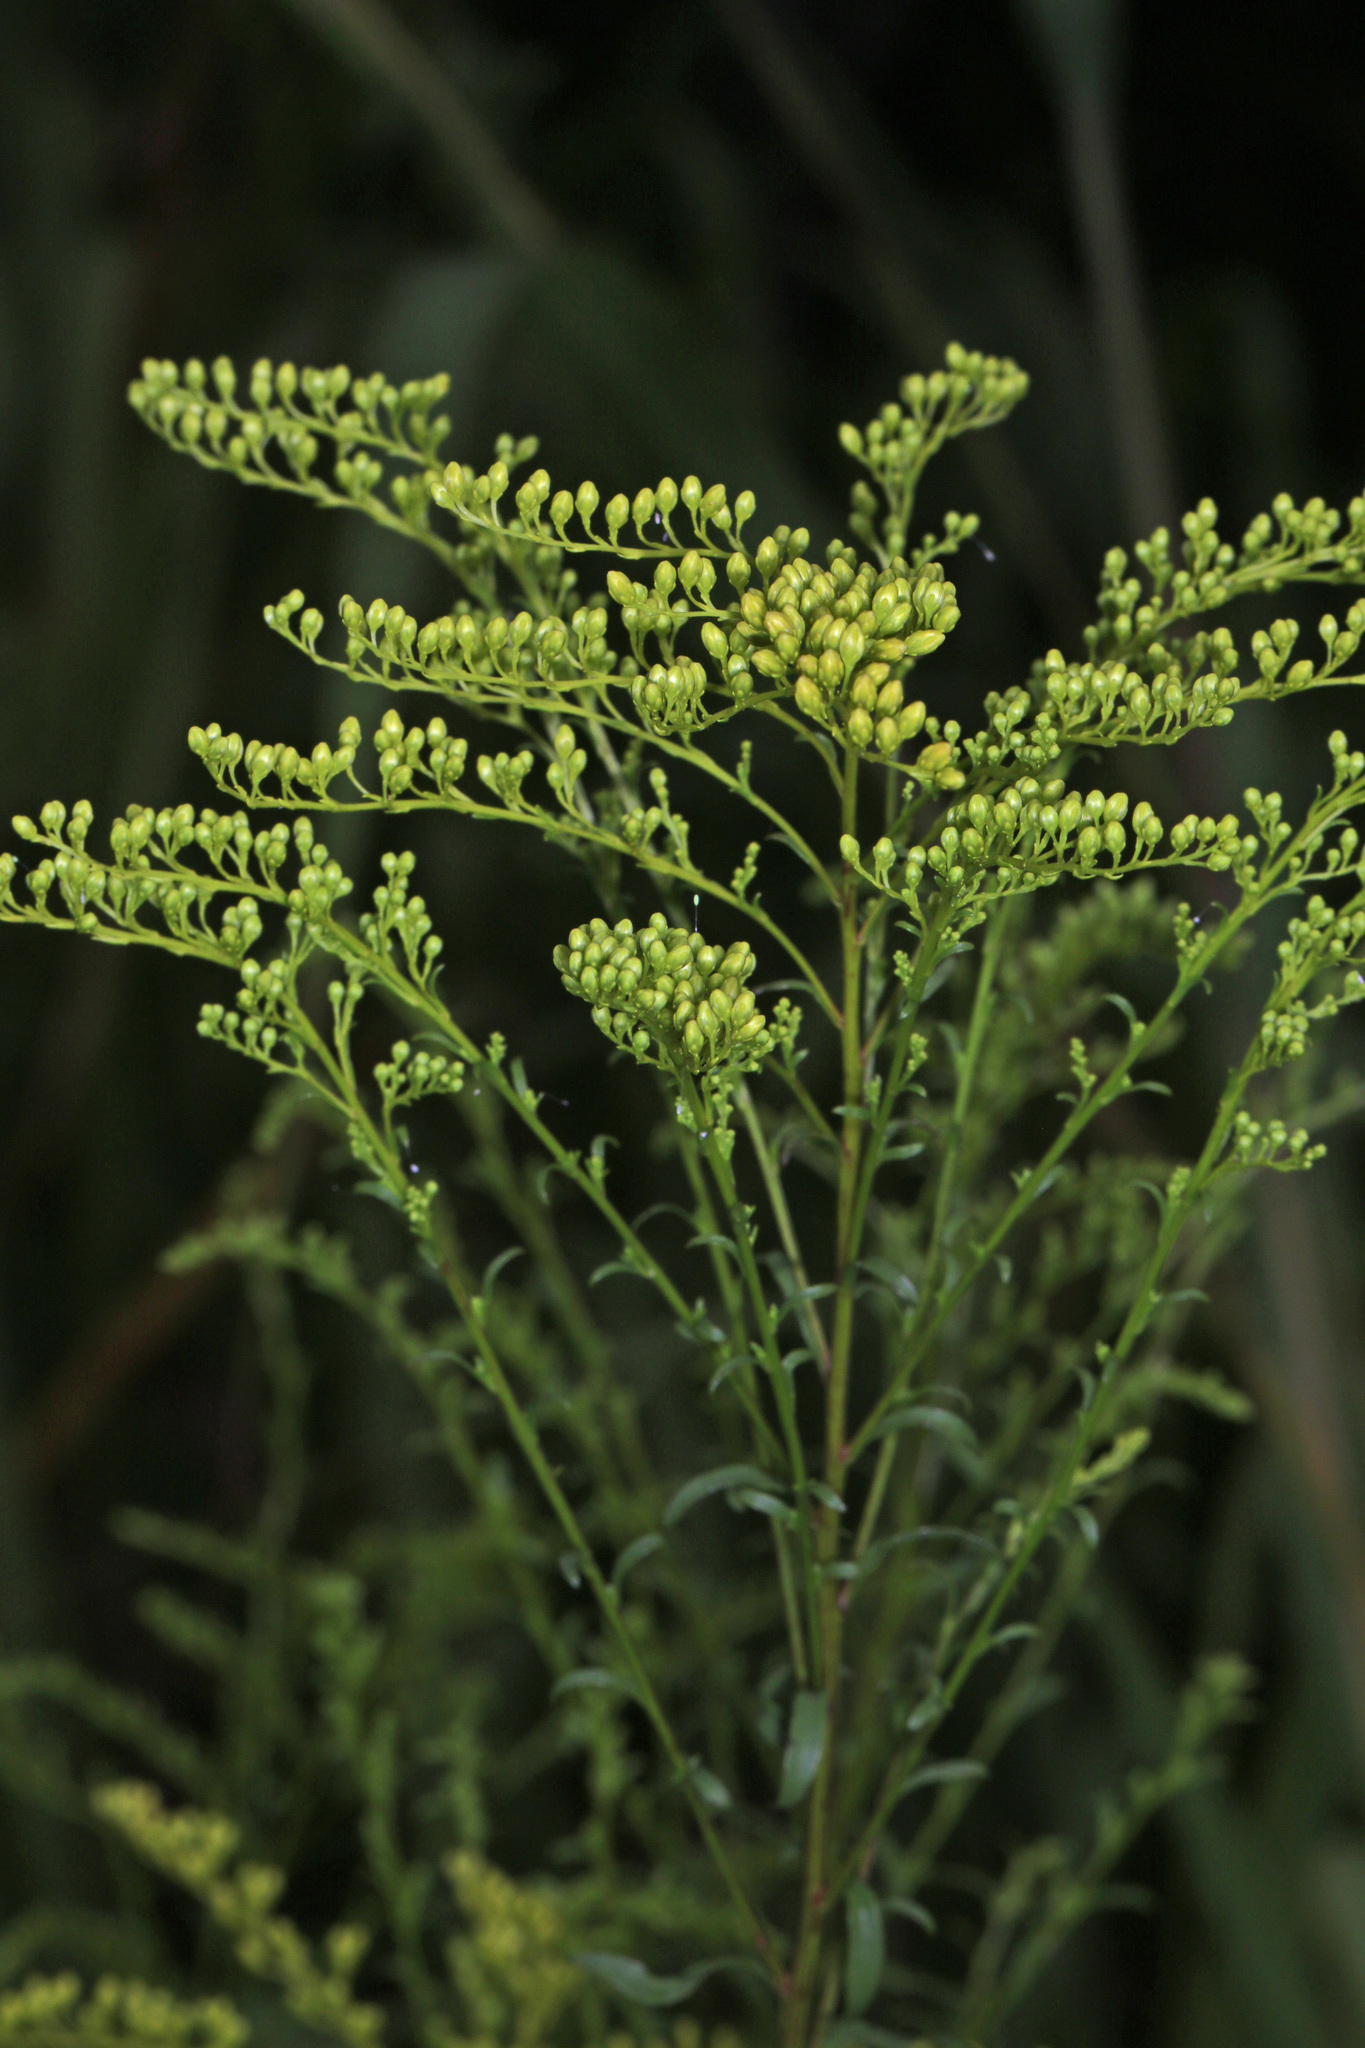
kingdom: Plantae
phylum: Tracheophyta
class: Magnoliopsida
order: Asterales
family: Asteraceae
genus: Solidago
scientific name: Solidago juncea
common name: Early goldenrod
